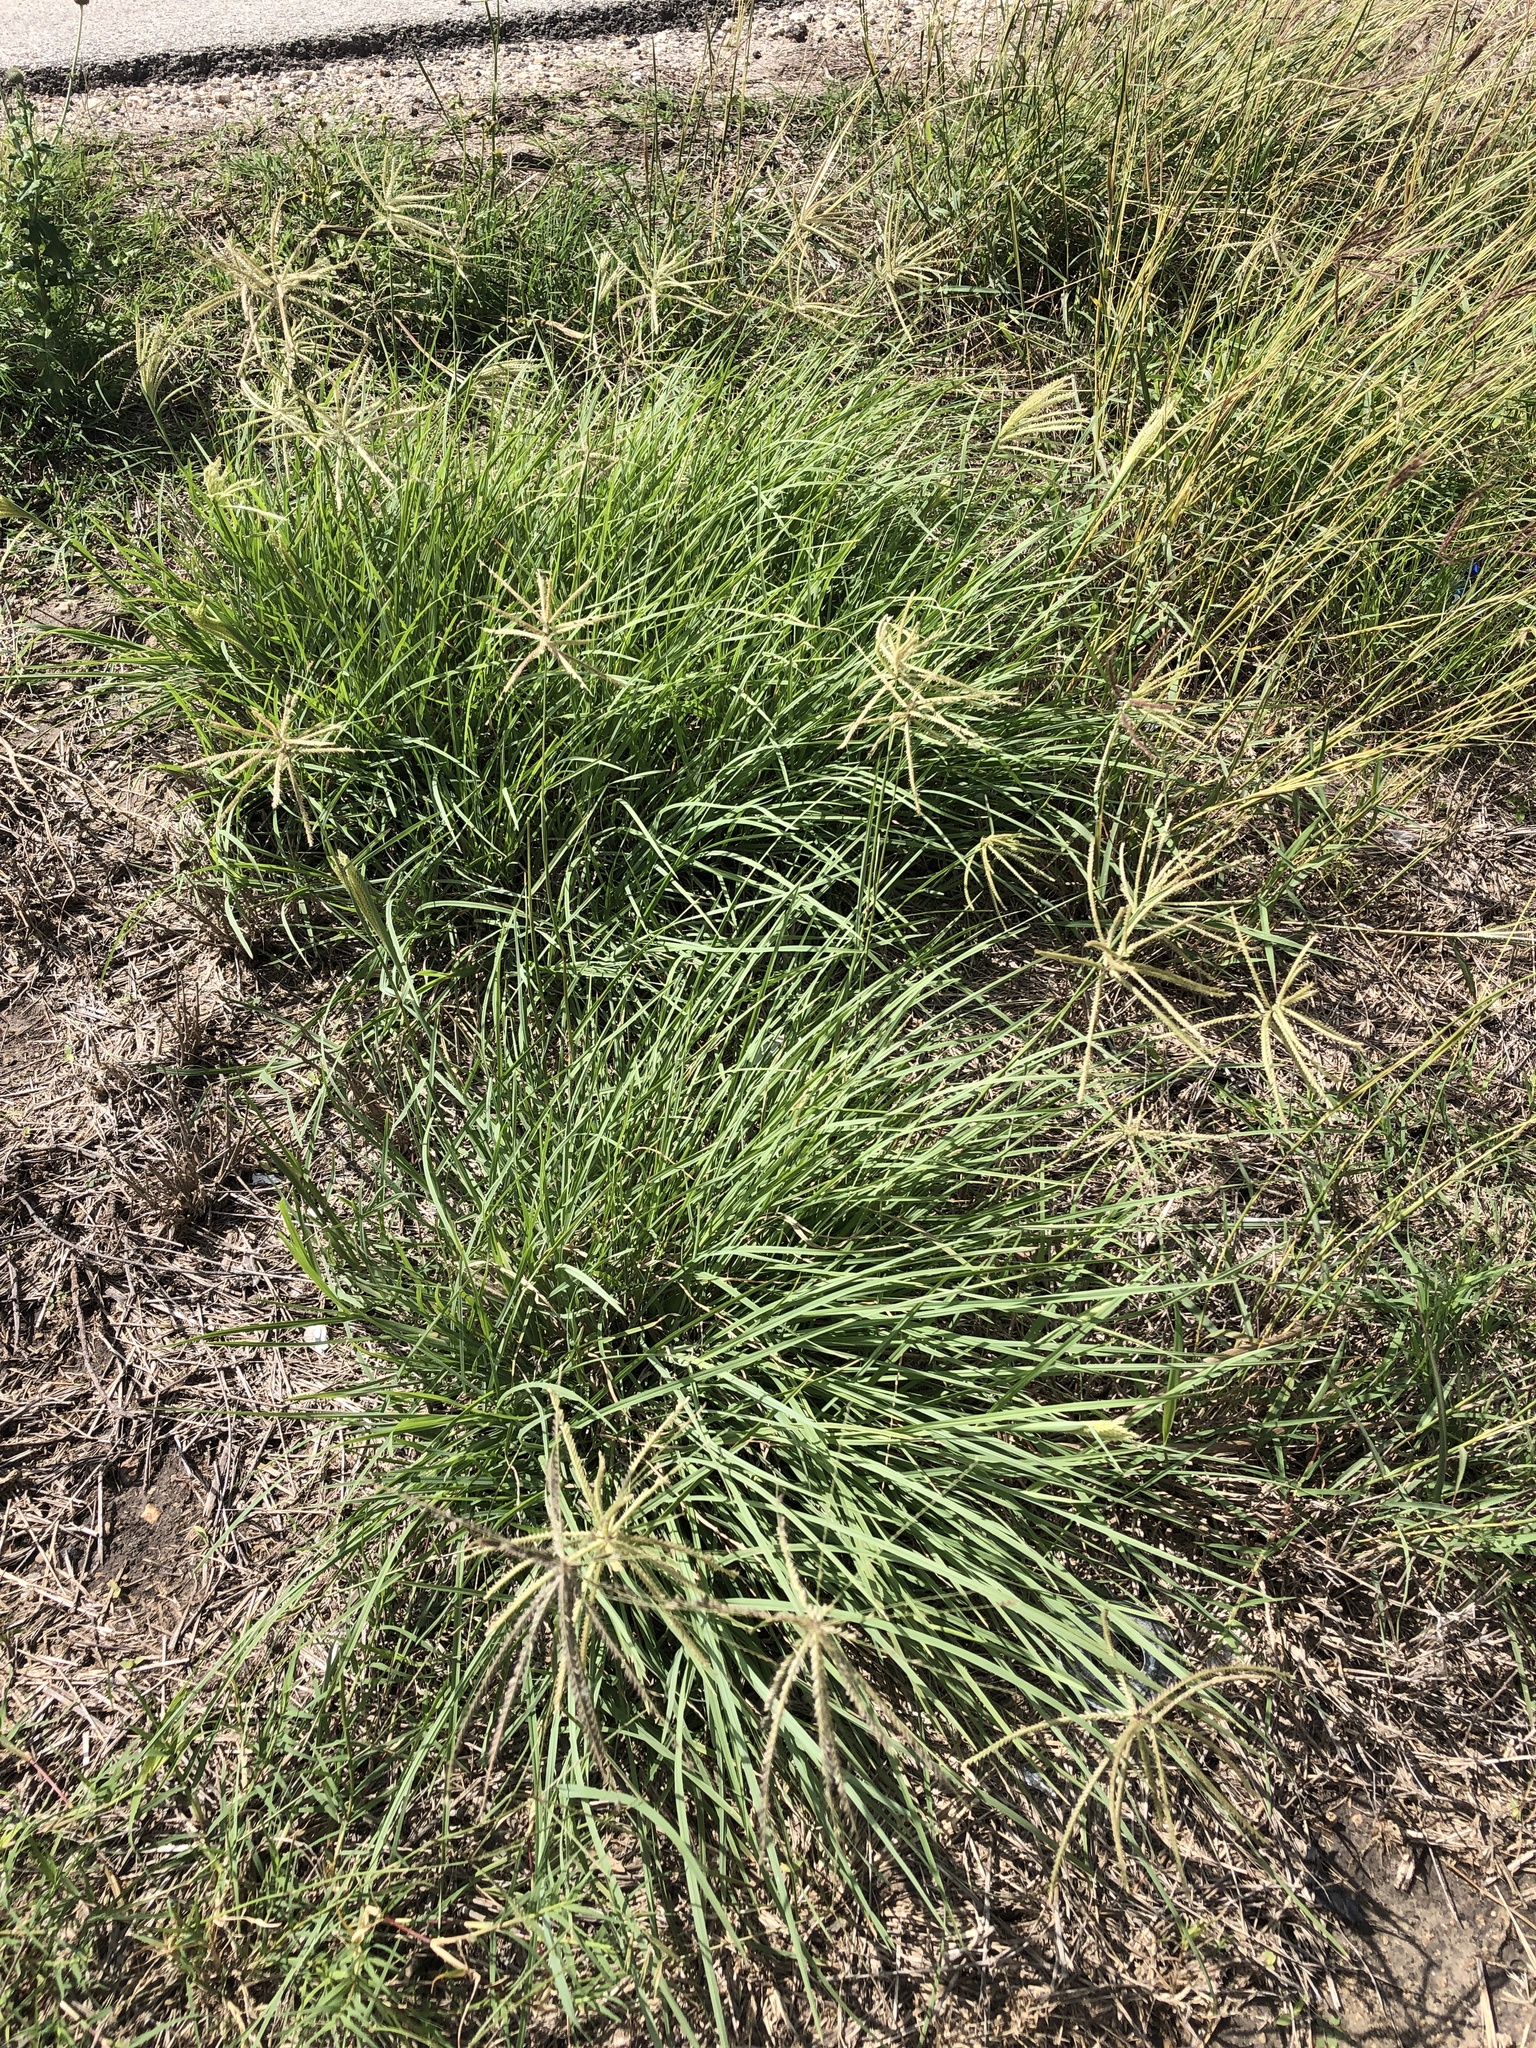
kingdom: Plantae
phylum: Tracheophyta
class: Liliopsida
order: Poales
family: Poaceae
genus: Chloris
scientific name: Chloris subdolichostachya
